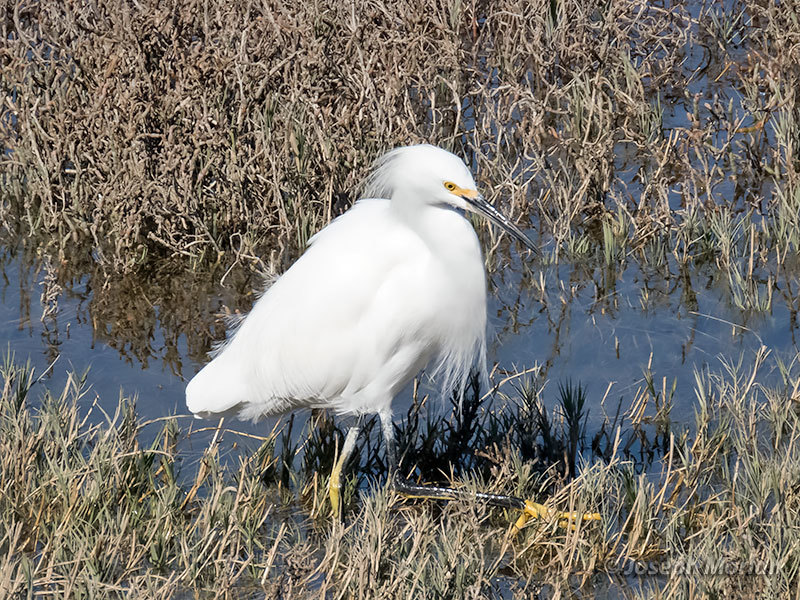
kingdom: Animalia
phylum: Chordata
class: Aves
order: Pelecaniformes
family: Ardeidae
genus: Egretta
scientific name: Egretta thula
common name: Snowy egret
